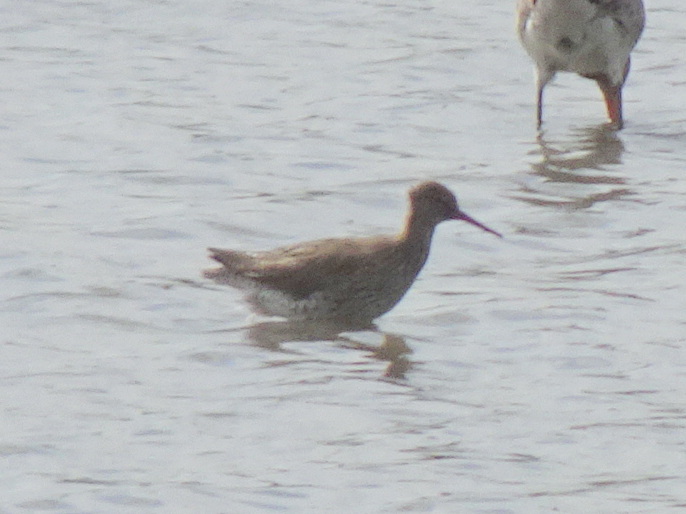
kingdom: Animalia
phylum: Chordata
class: Aves
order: Charadriiformes
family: Scolopacidae
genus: Tringa
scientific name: Tringa totanus
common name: Common redshank
